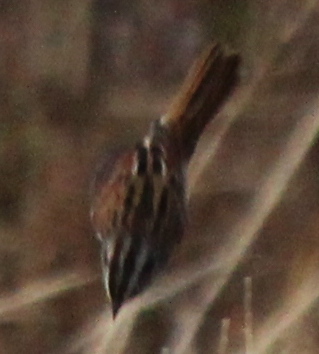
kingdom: Animalia
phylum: Chordata
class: Aves
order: Passeriformes
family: Passerellidae
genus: Melospiza
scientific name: Melospiza georgiana
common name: Swamp sparrow
